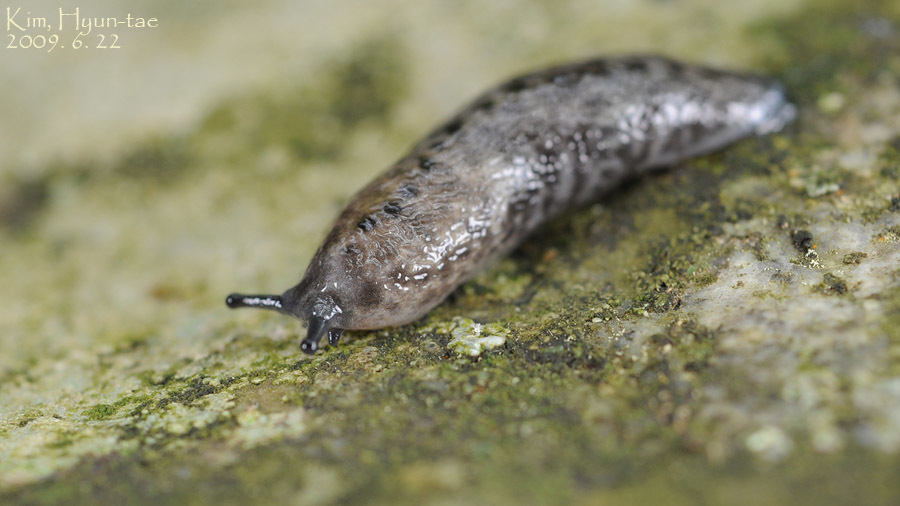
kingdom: Animalia
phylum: Mollusca
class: Gastropoda
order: Stylommatophora
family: Philomycidae
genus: Meghimatium
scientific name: Meghimatium fruhstorferi
